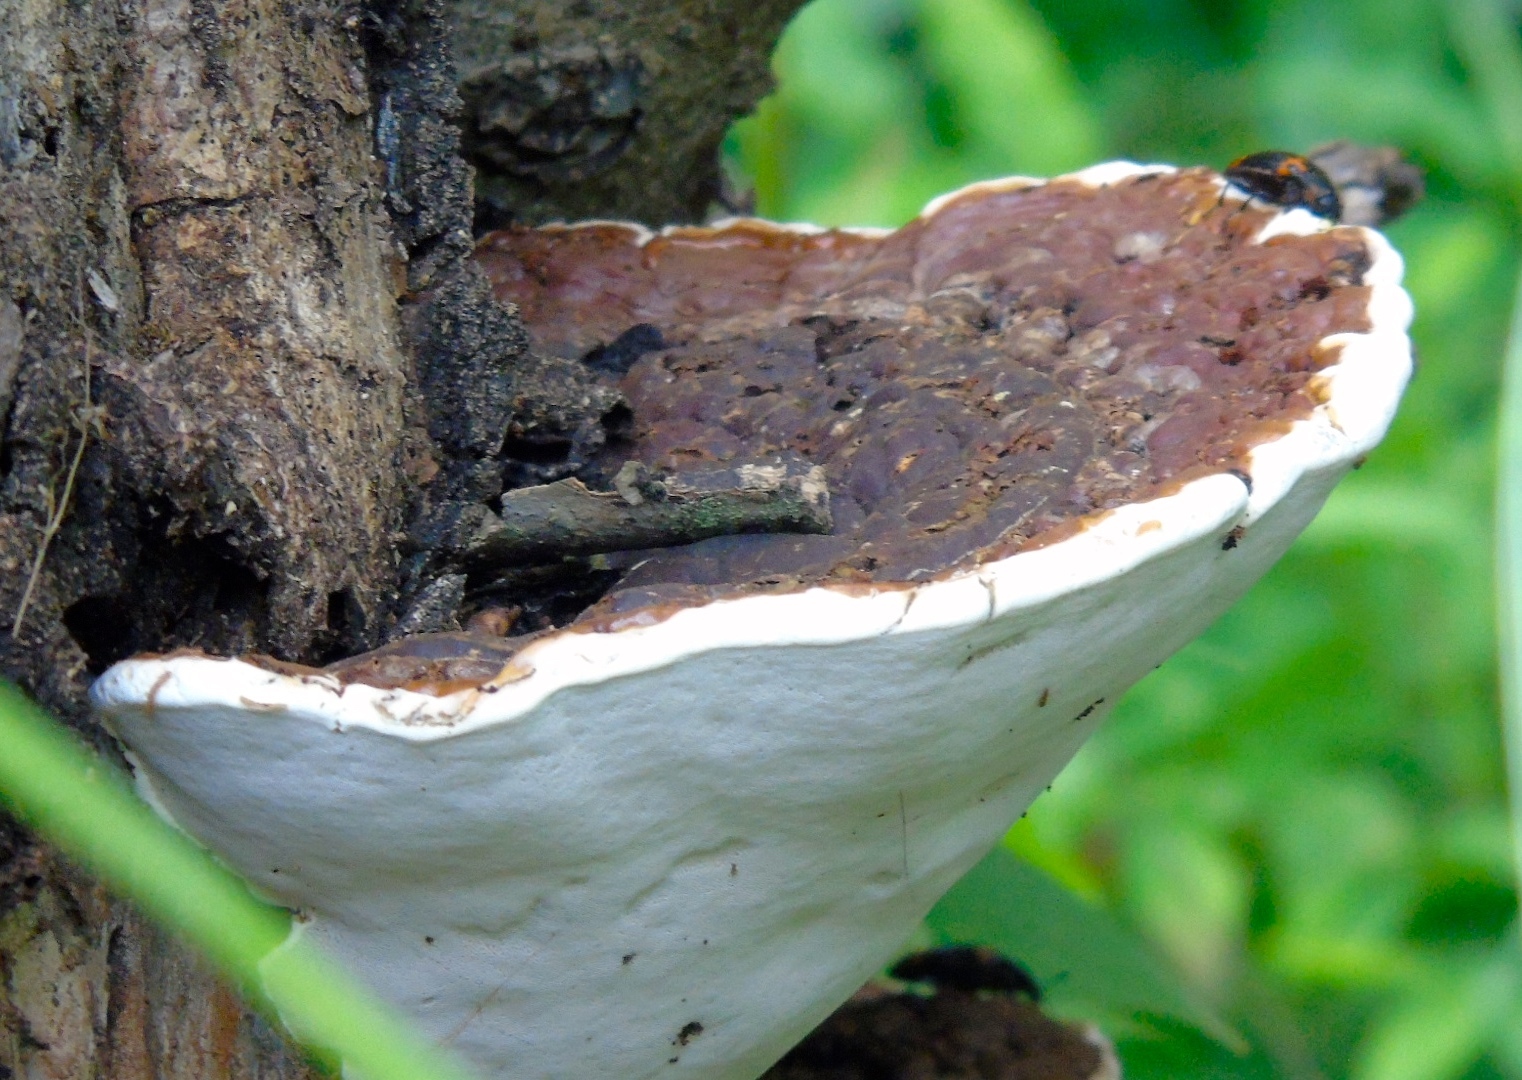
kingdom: Fungi
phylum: Basidiomycota
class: Agaricomycetes
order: Polyporales
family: Polyporaceae
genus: Ganoderma
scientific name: Ganoderma
